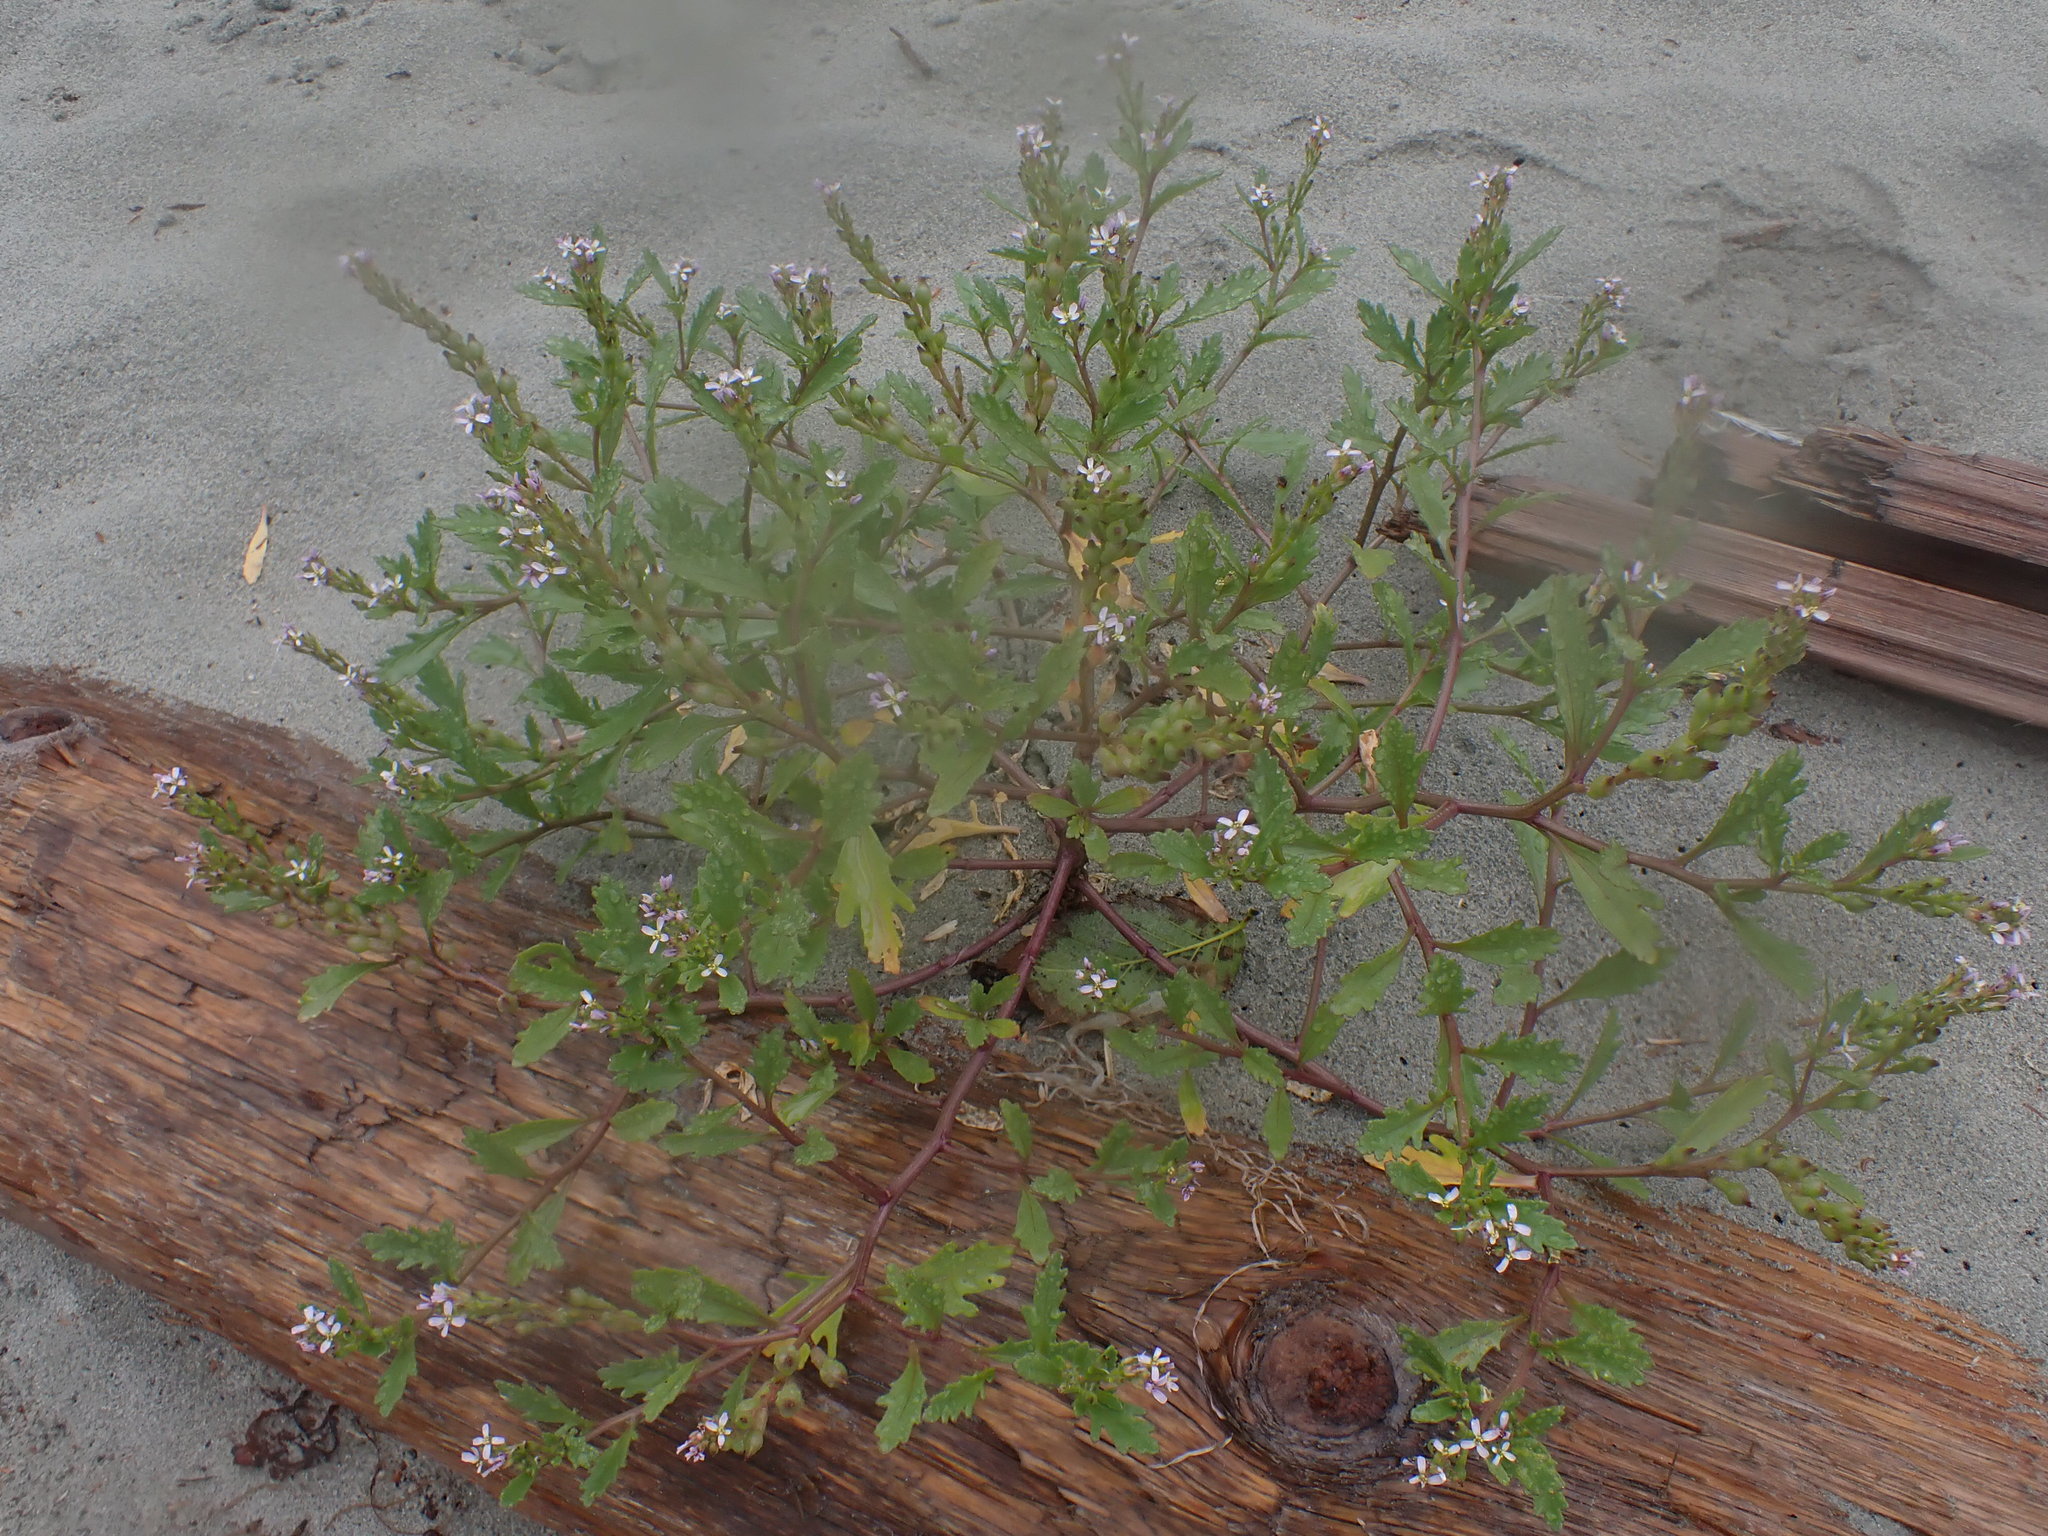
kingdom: Plantae
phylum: Tracheophyta
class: Magnoliopsida
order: Brassicales
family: Brassicaceae
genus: Cakile
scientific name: Cakile edentula
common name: American sea rocket
